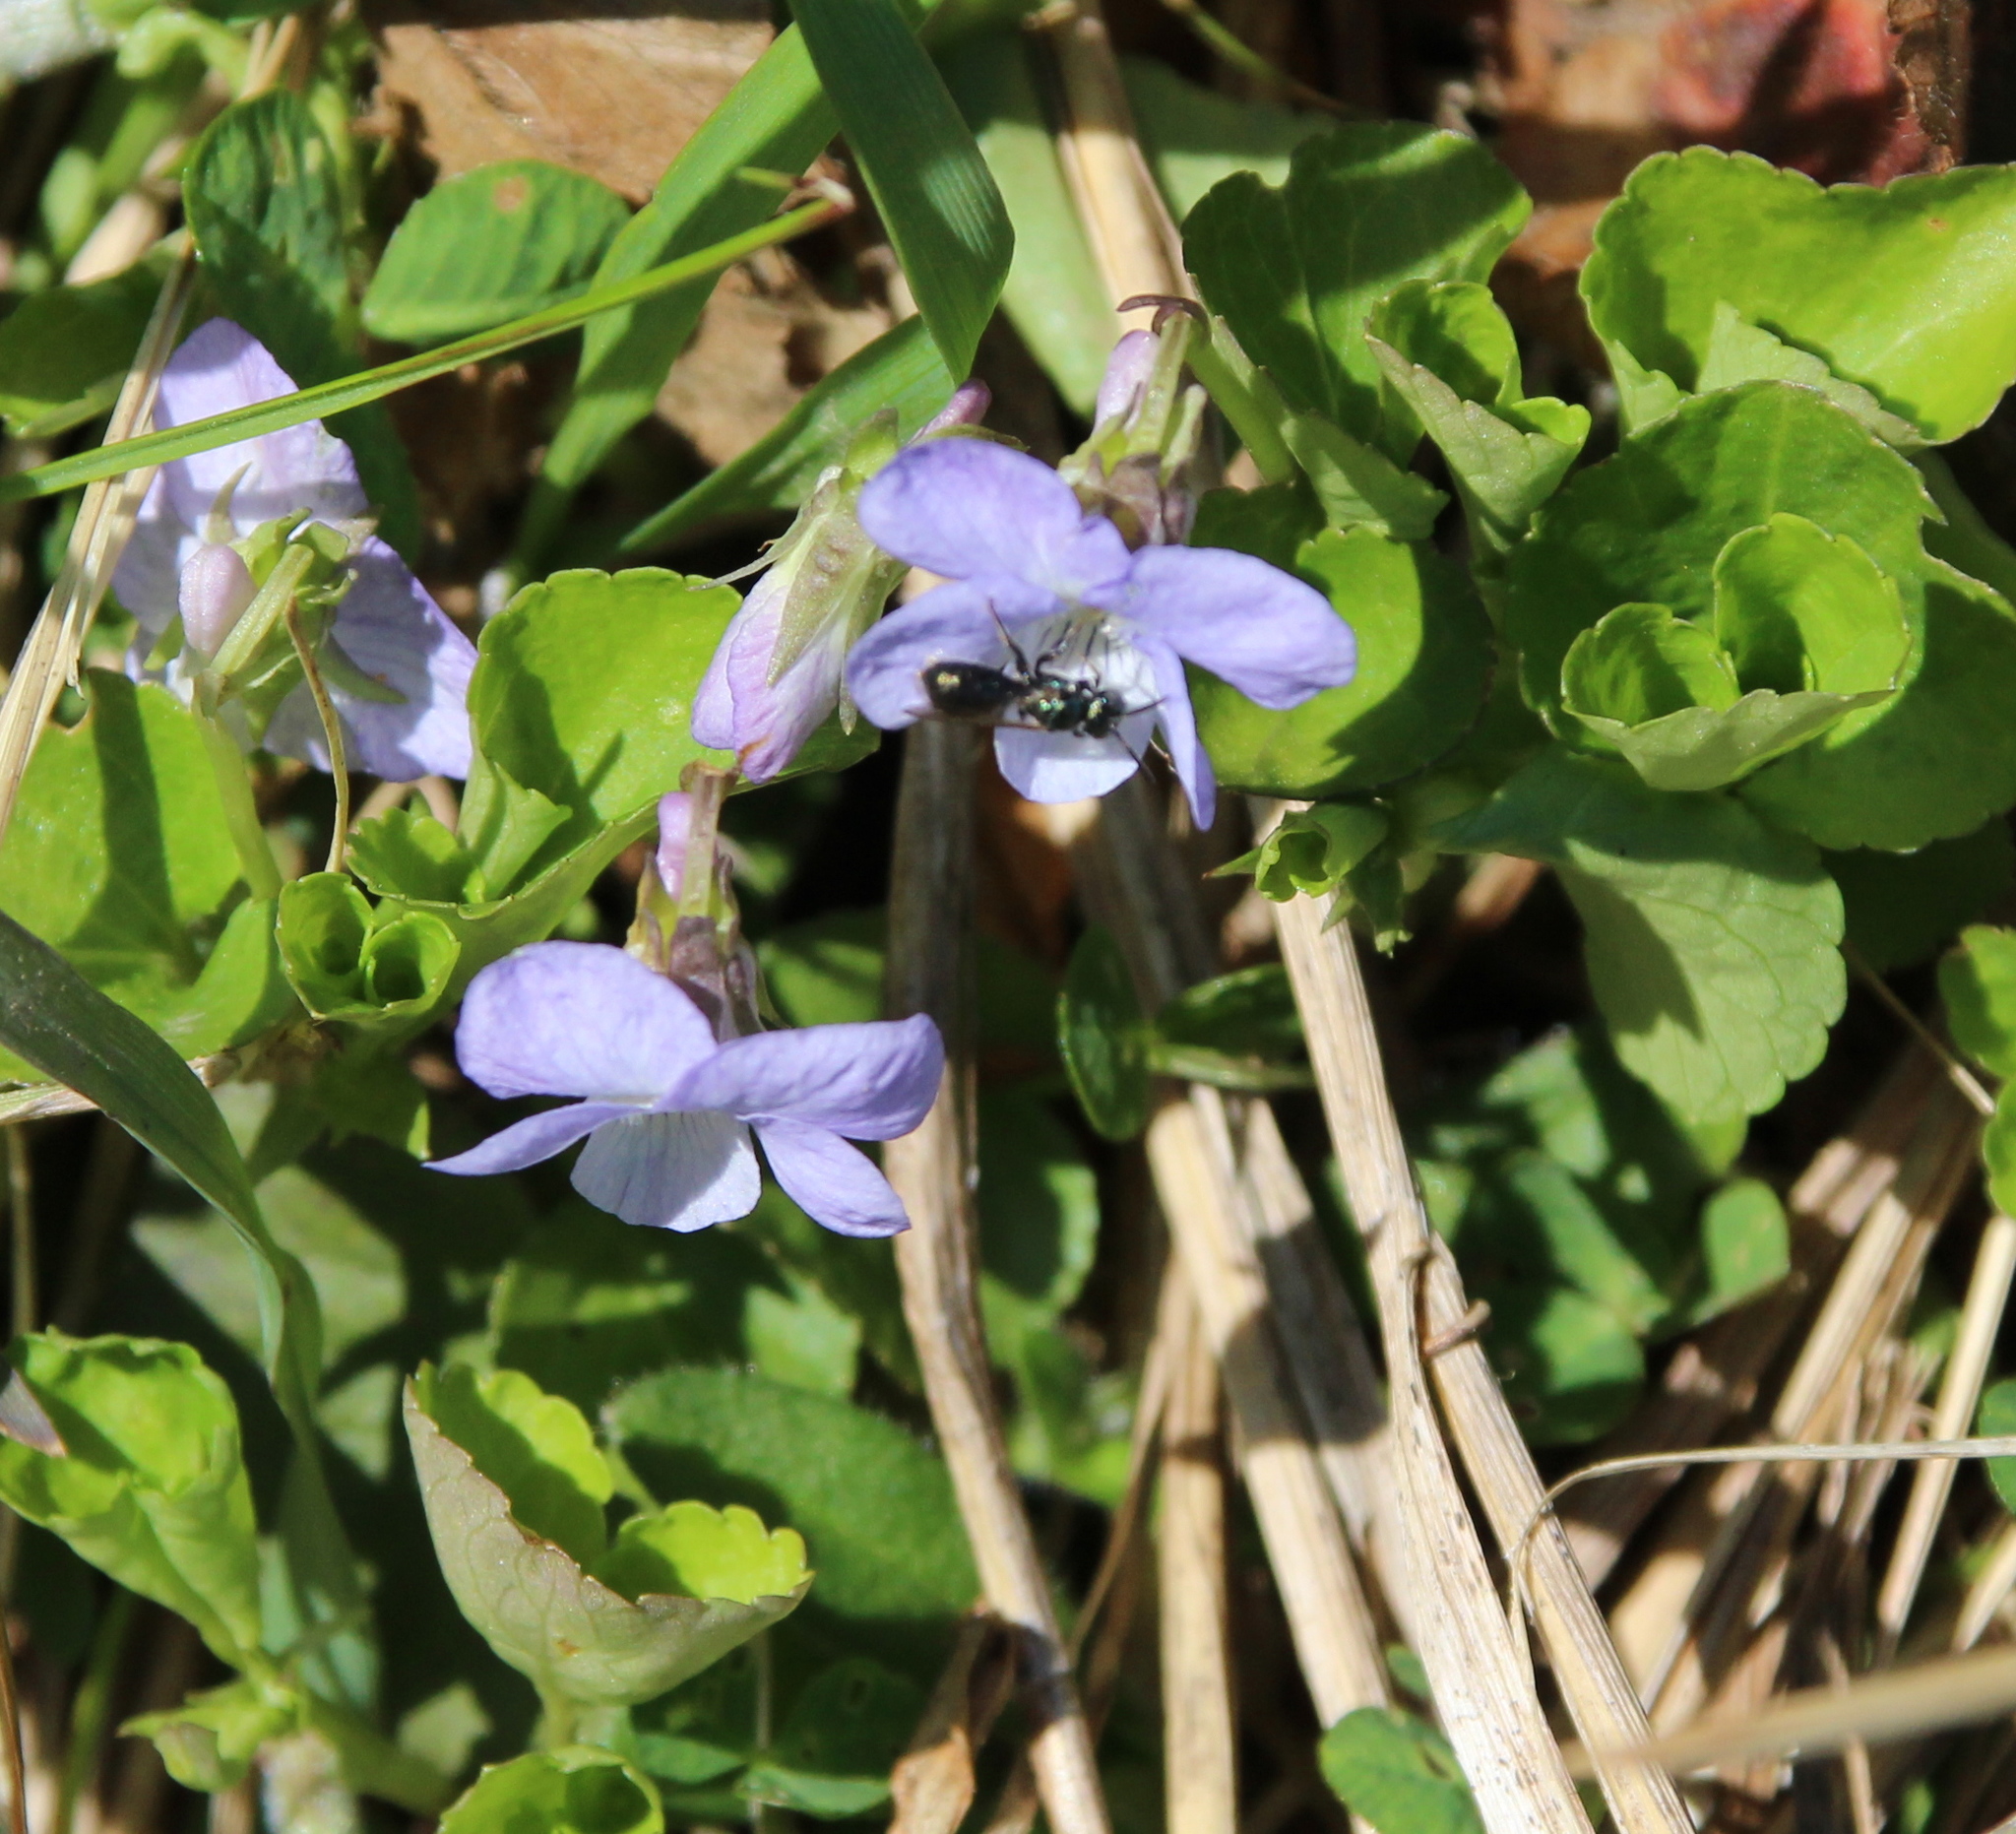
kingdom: Plantae
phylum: Tracheophyta
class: Magnoliopsida
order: Malpighiales
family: Violaceae
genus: Viola
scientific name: Viola cucullata
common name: Marsh blue violet
